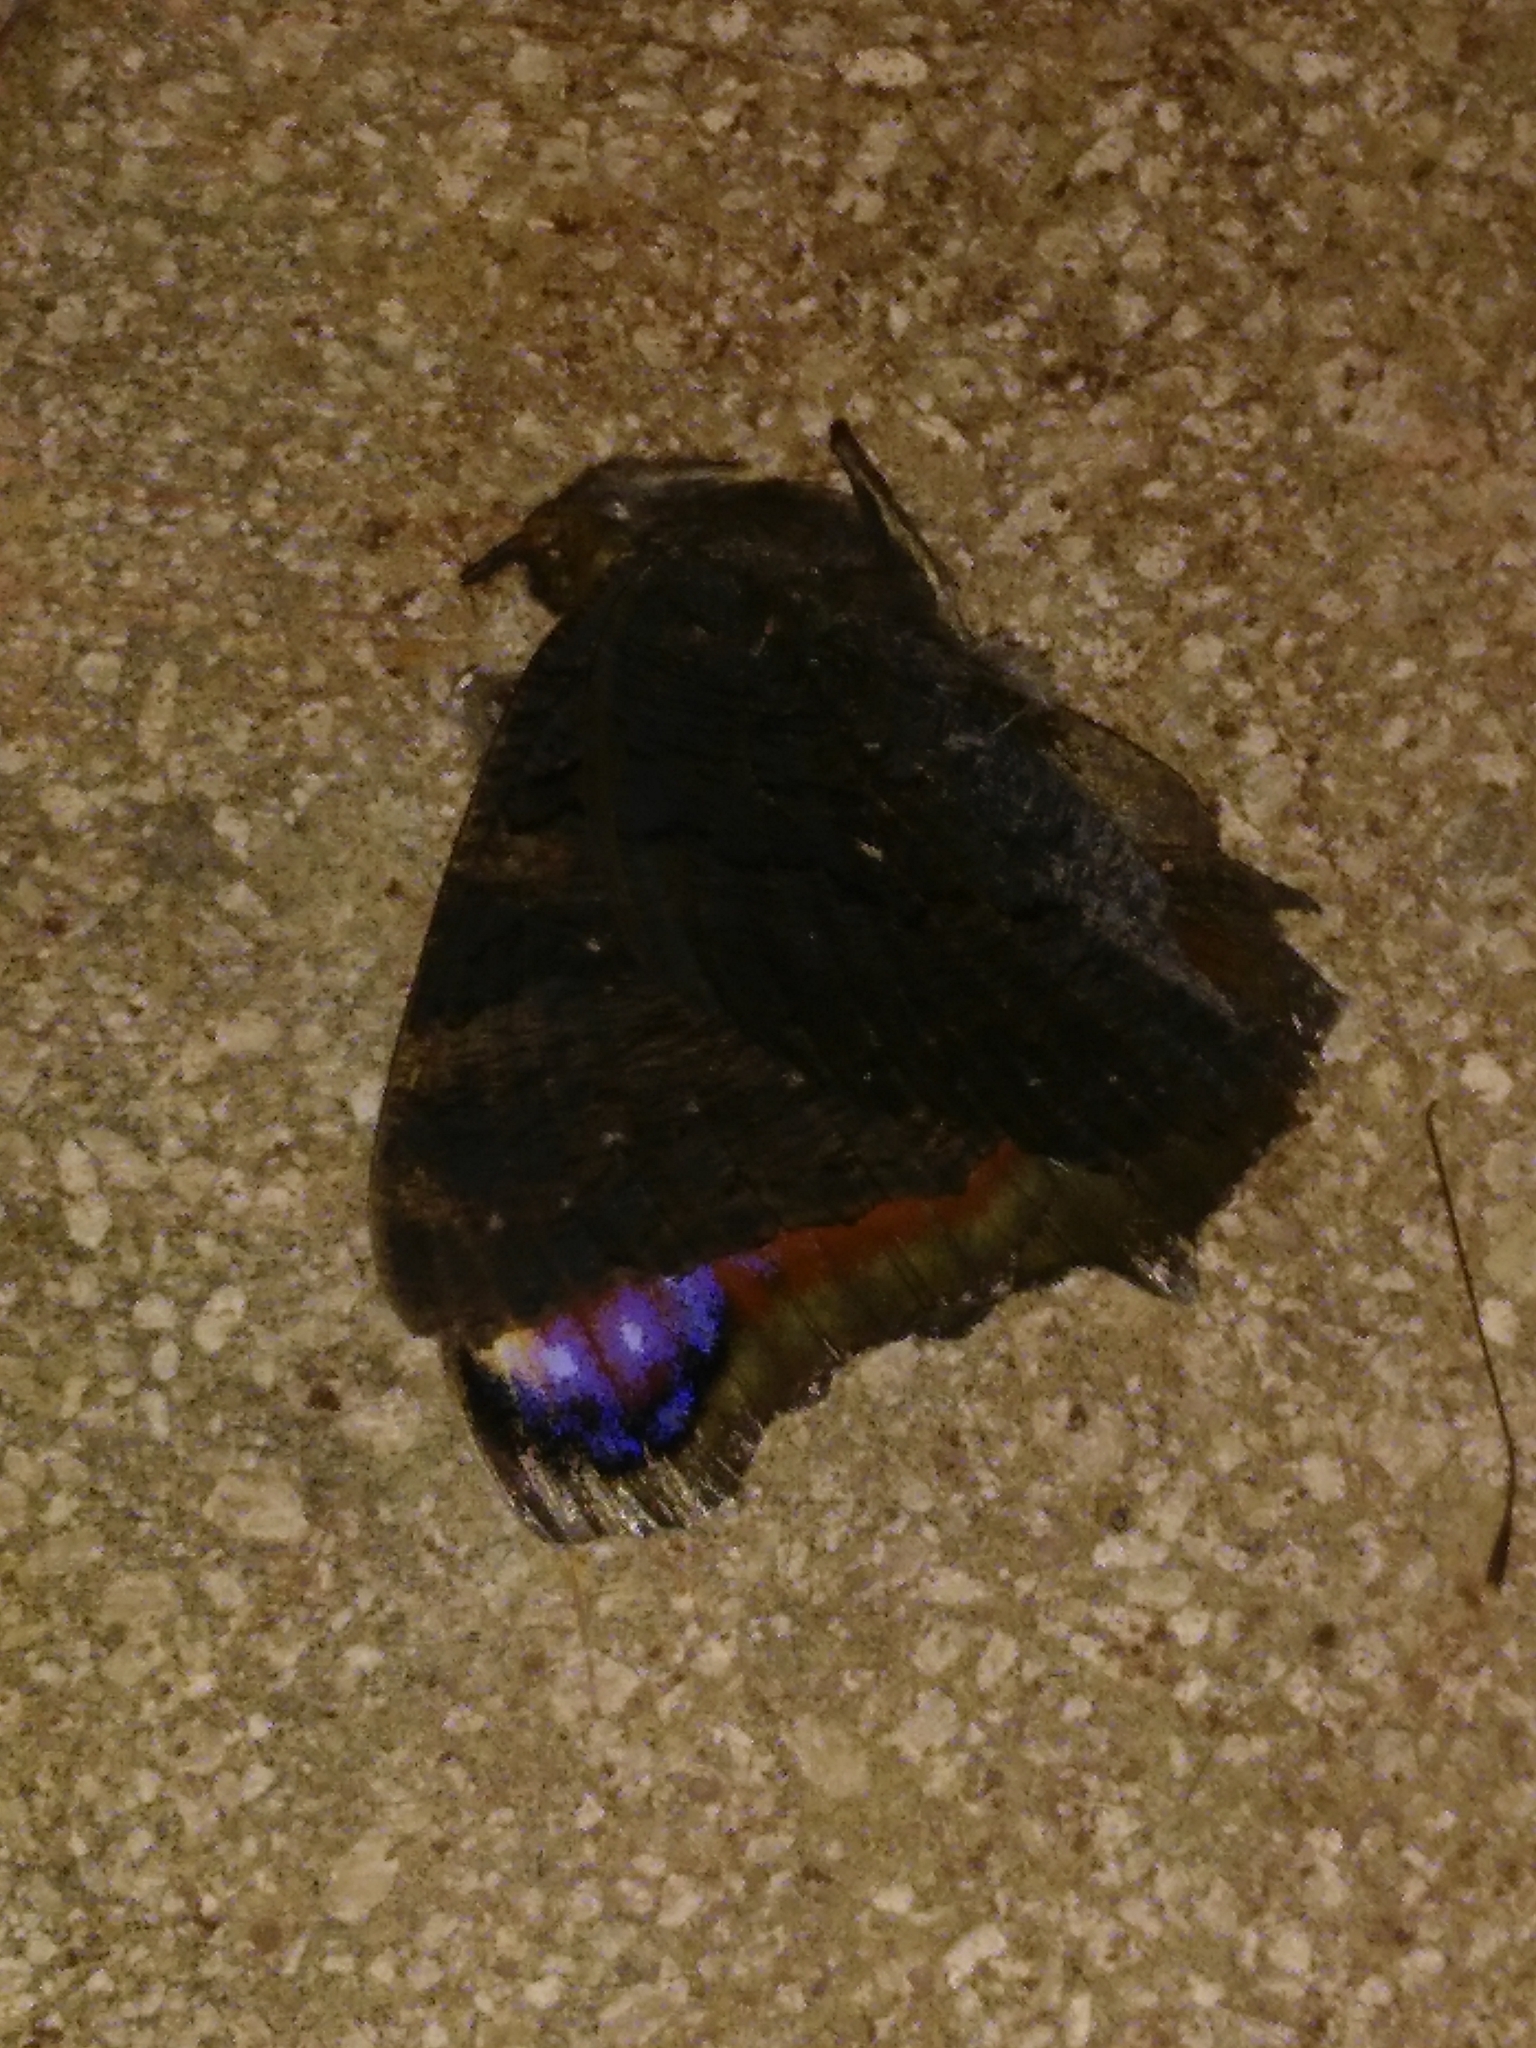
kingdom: Animalia
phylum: Arthropoda
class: Insecta
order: Lepidoptera
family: Nymphalidae
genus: Aglais
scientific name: Aglais io
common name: Peacock
